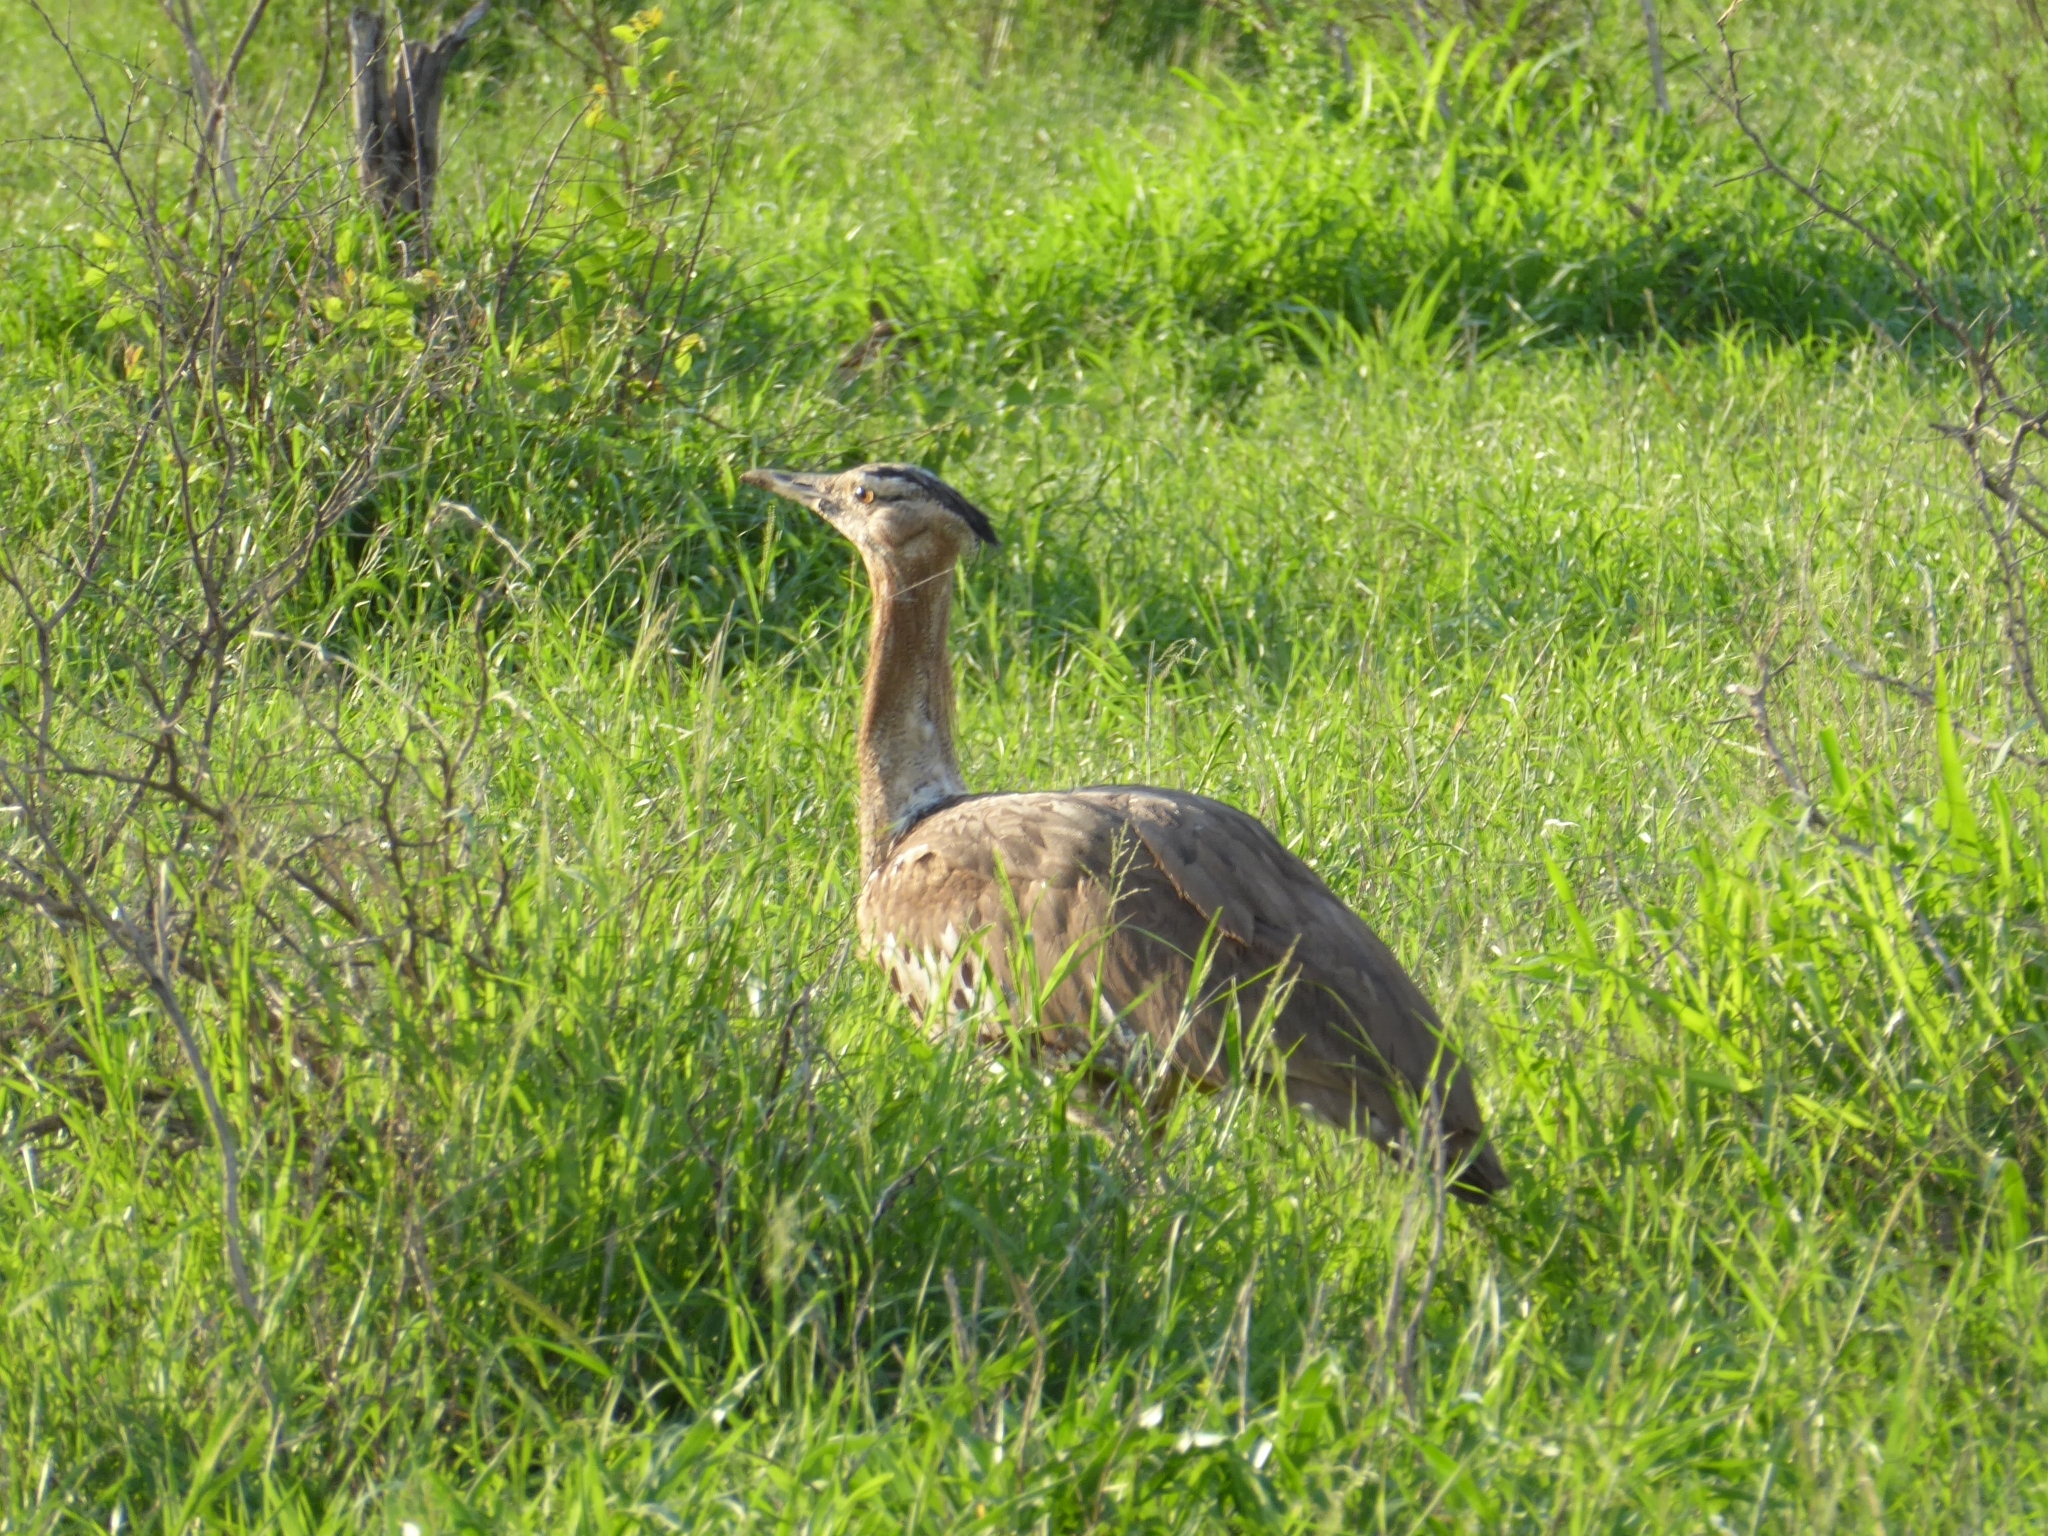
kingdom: Animalia
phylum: Chordata
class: Aves
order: Otidiformes
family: Otididae
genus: Ardeotis
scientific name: Ardeotis kori
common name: Kori bustard
